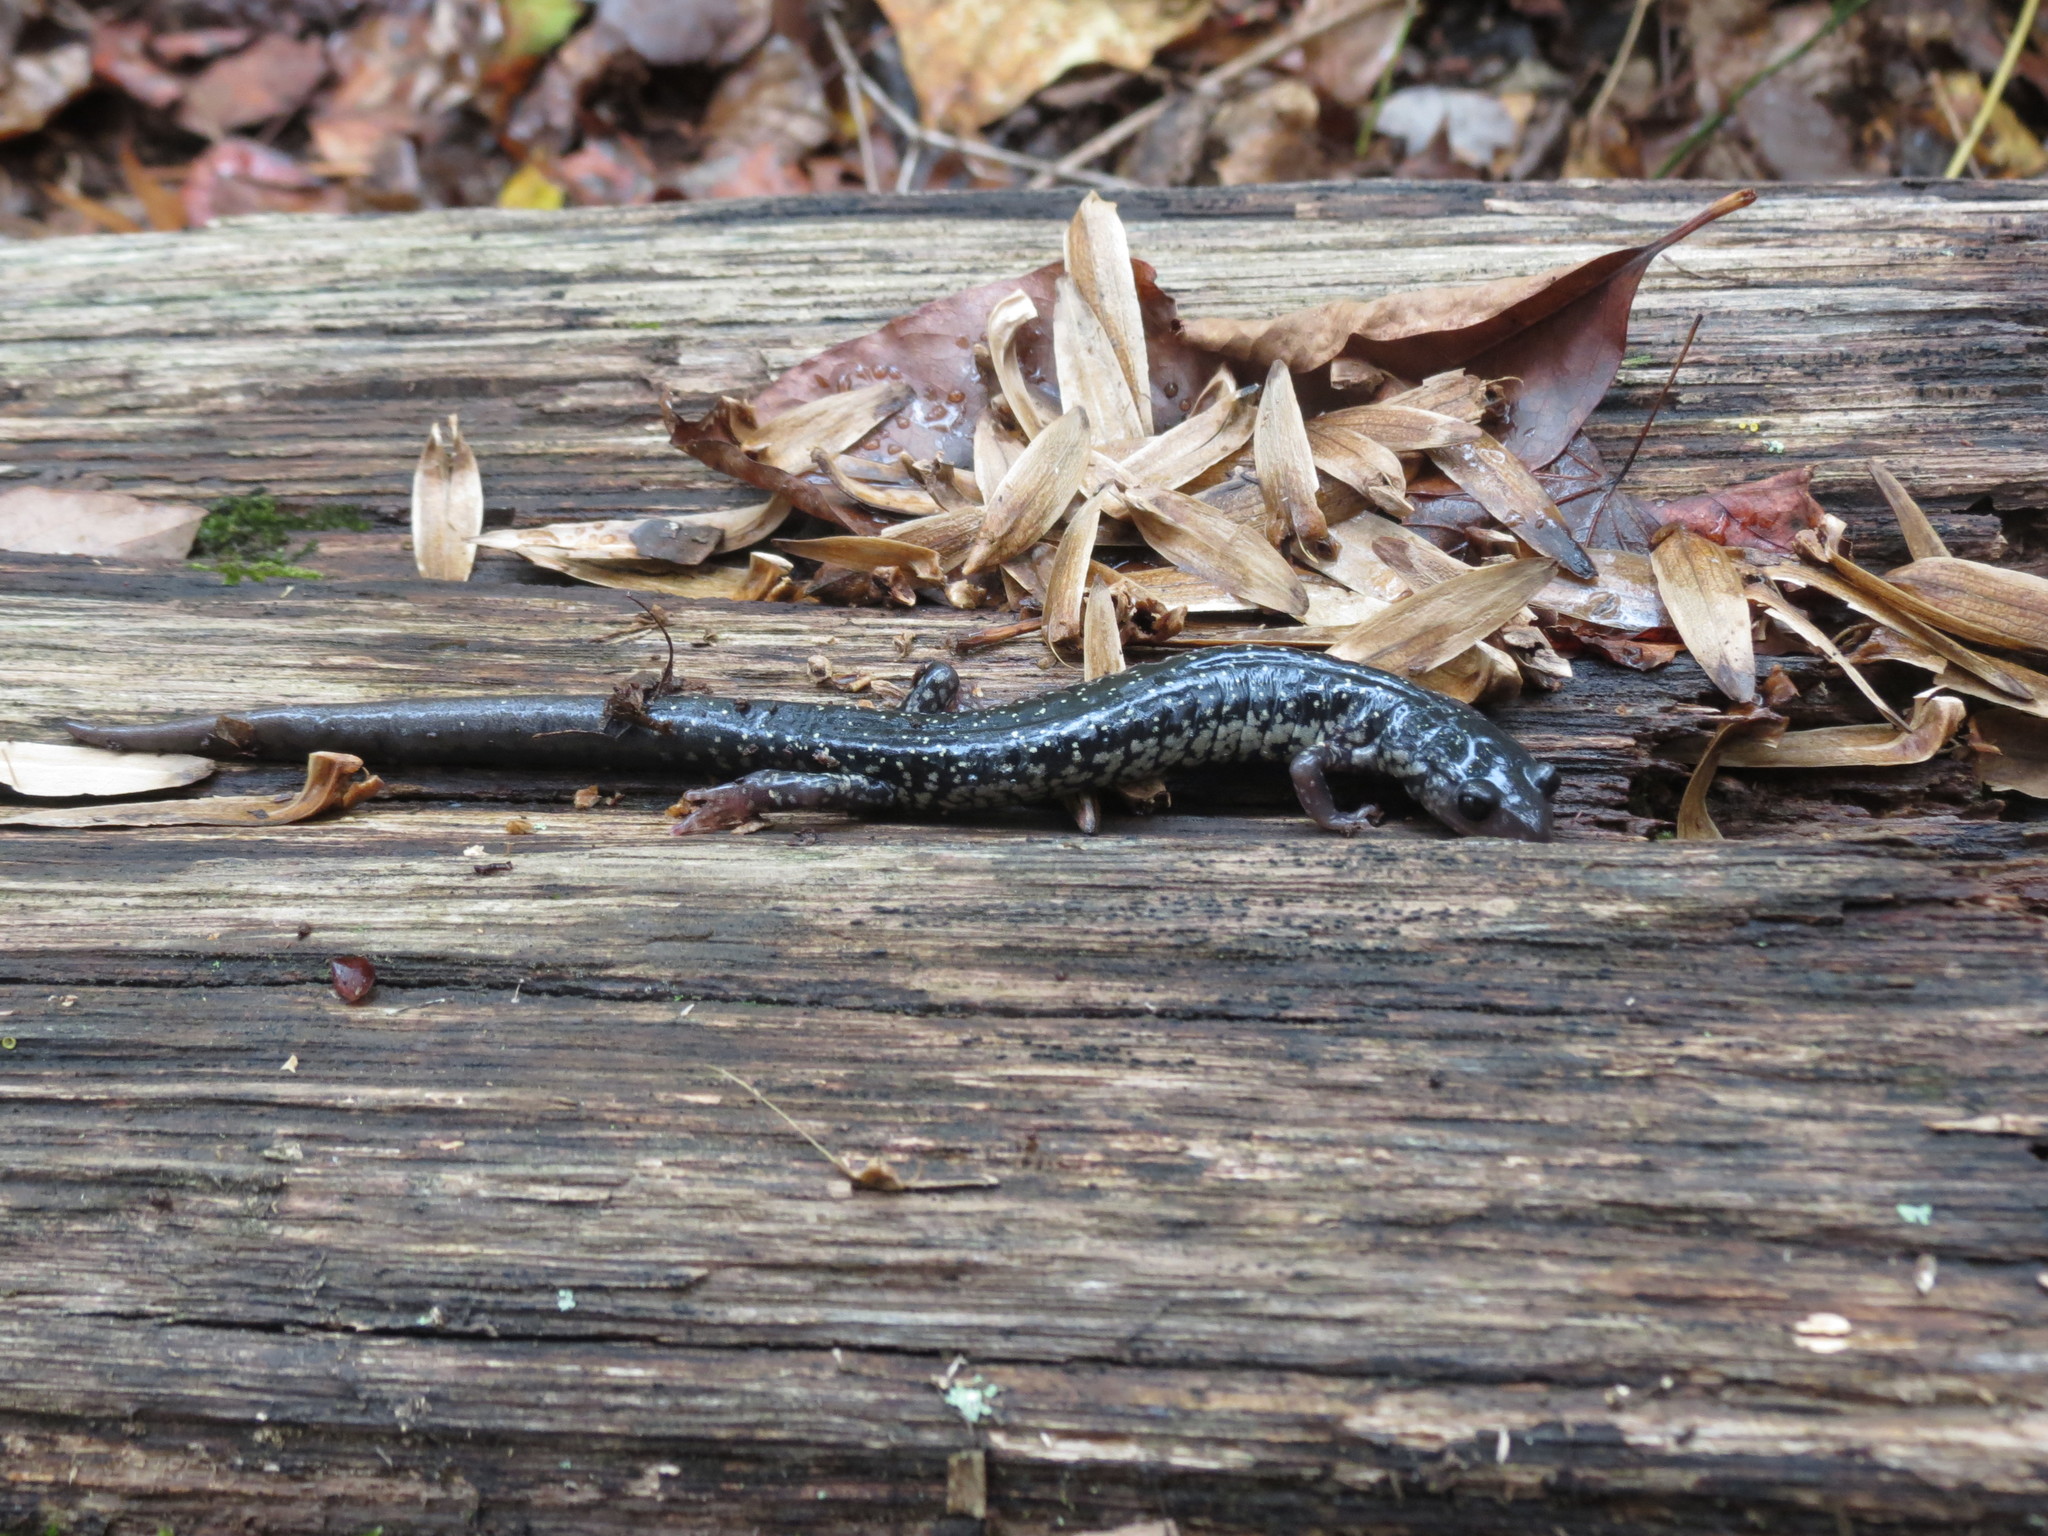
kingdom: Animalia
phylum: Chordata
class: Amphibia
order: Caudata
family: Plethodontidae
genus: Plethodon
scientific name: Plethodon glutinosus
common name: Northern slimy salamander
